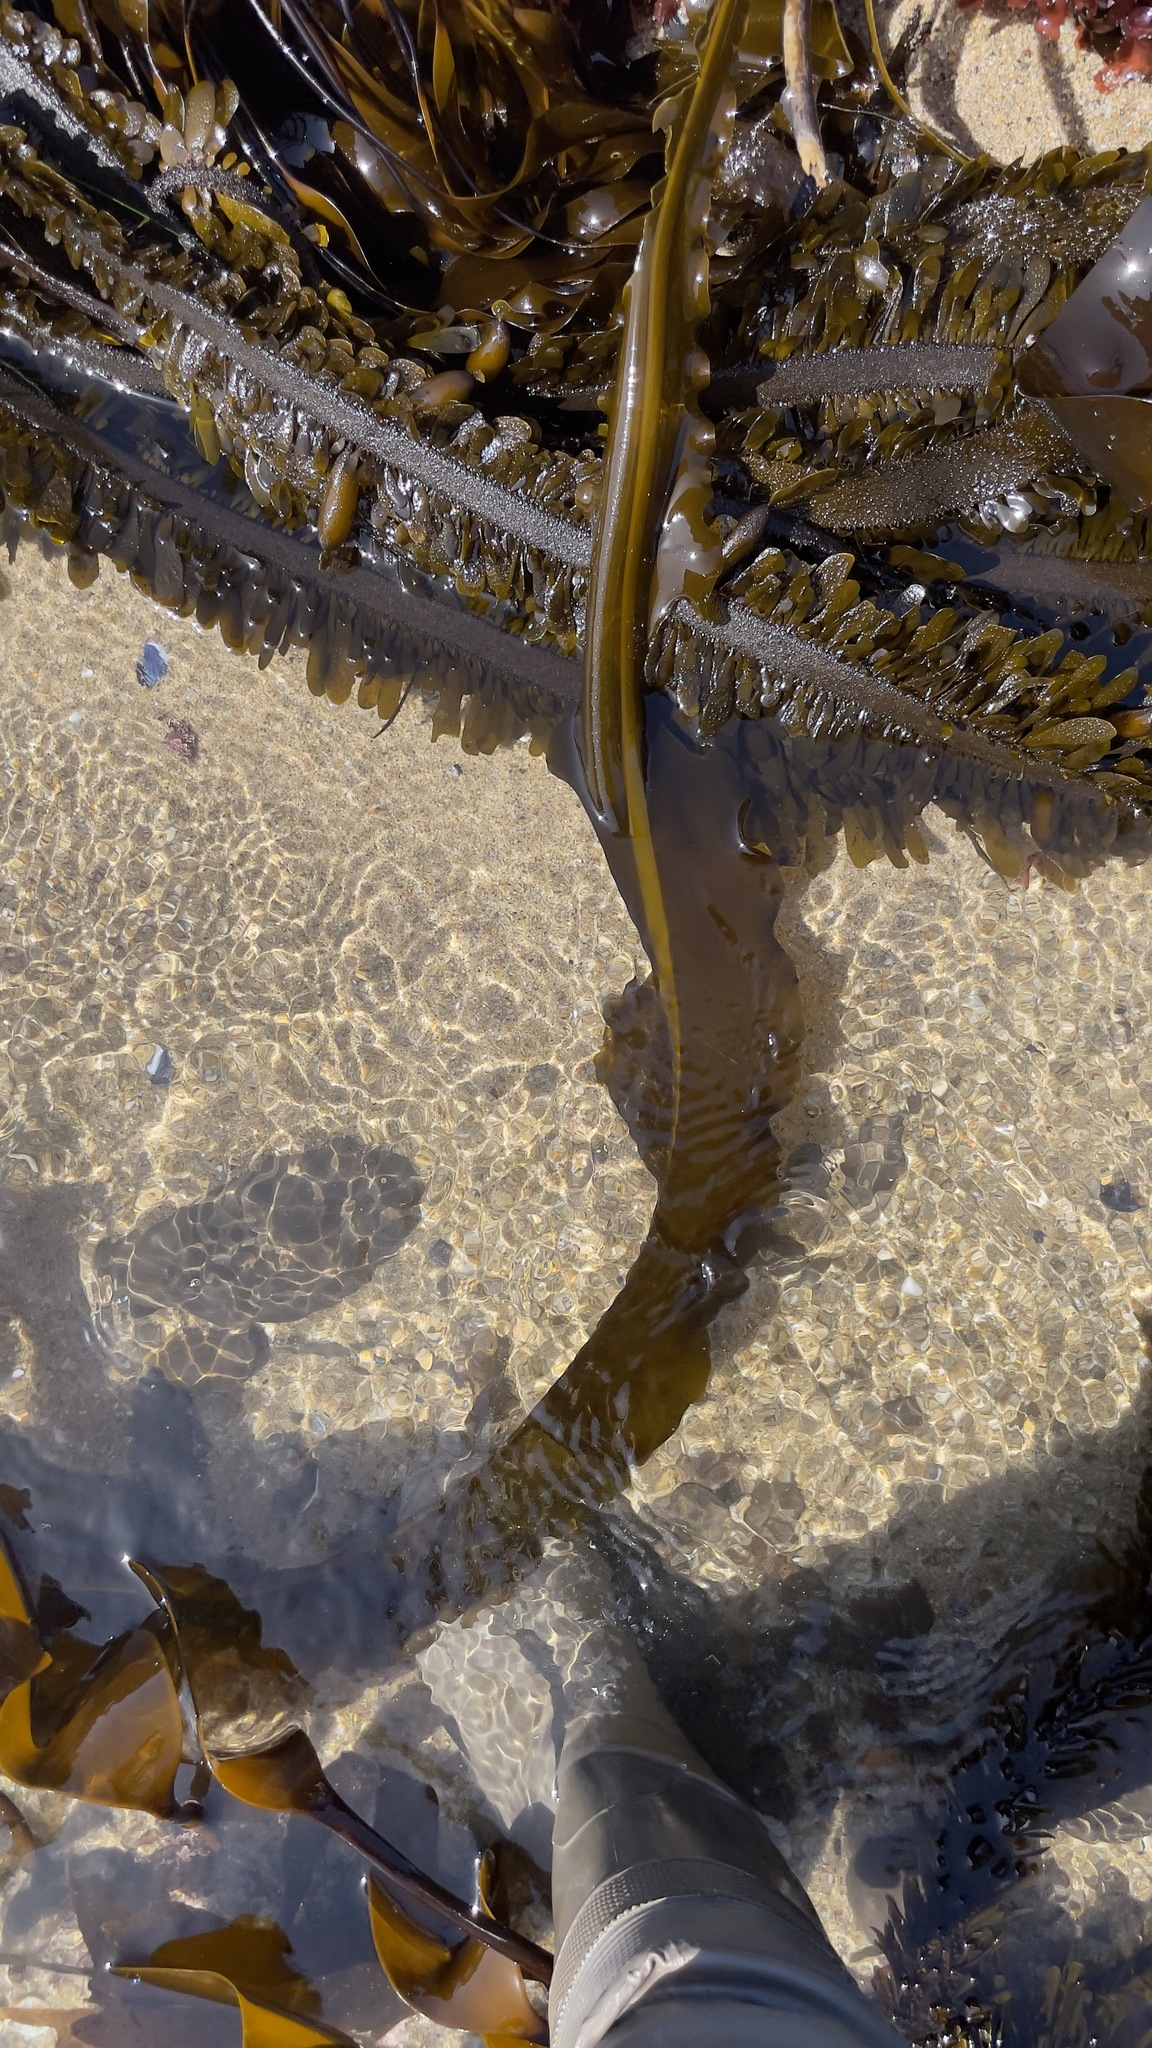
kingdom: Chromista
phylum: Ochrophyta
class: Phaeophyceae
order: Laminariales
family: Alariaceae
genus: Alaria
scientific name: Alaria marginata
